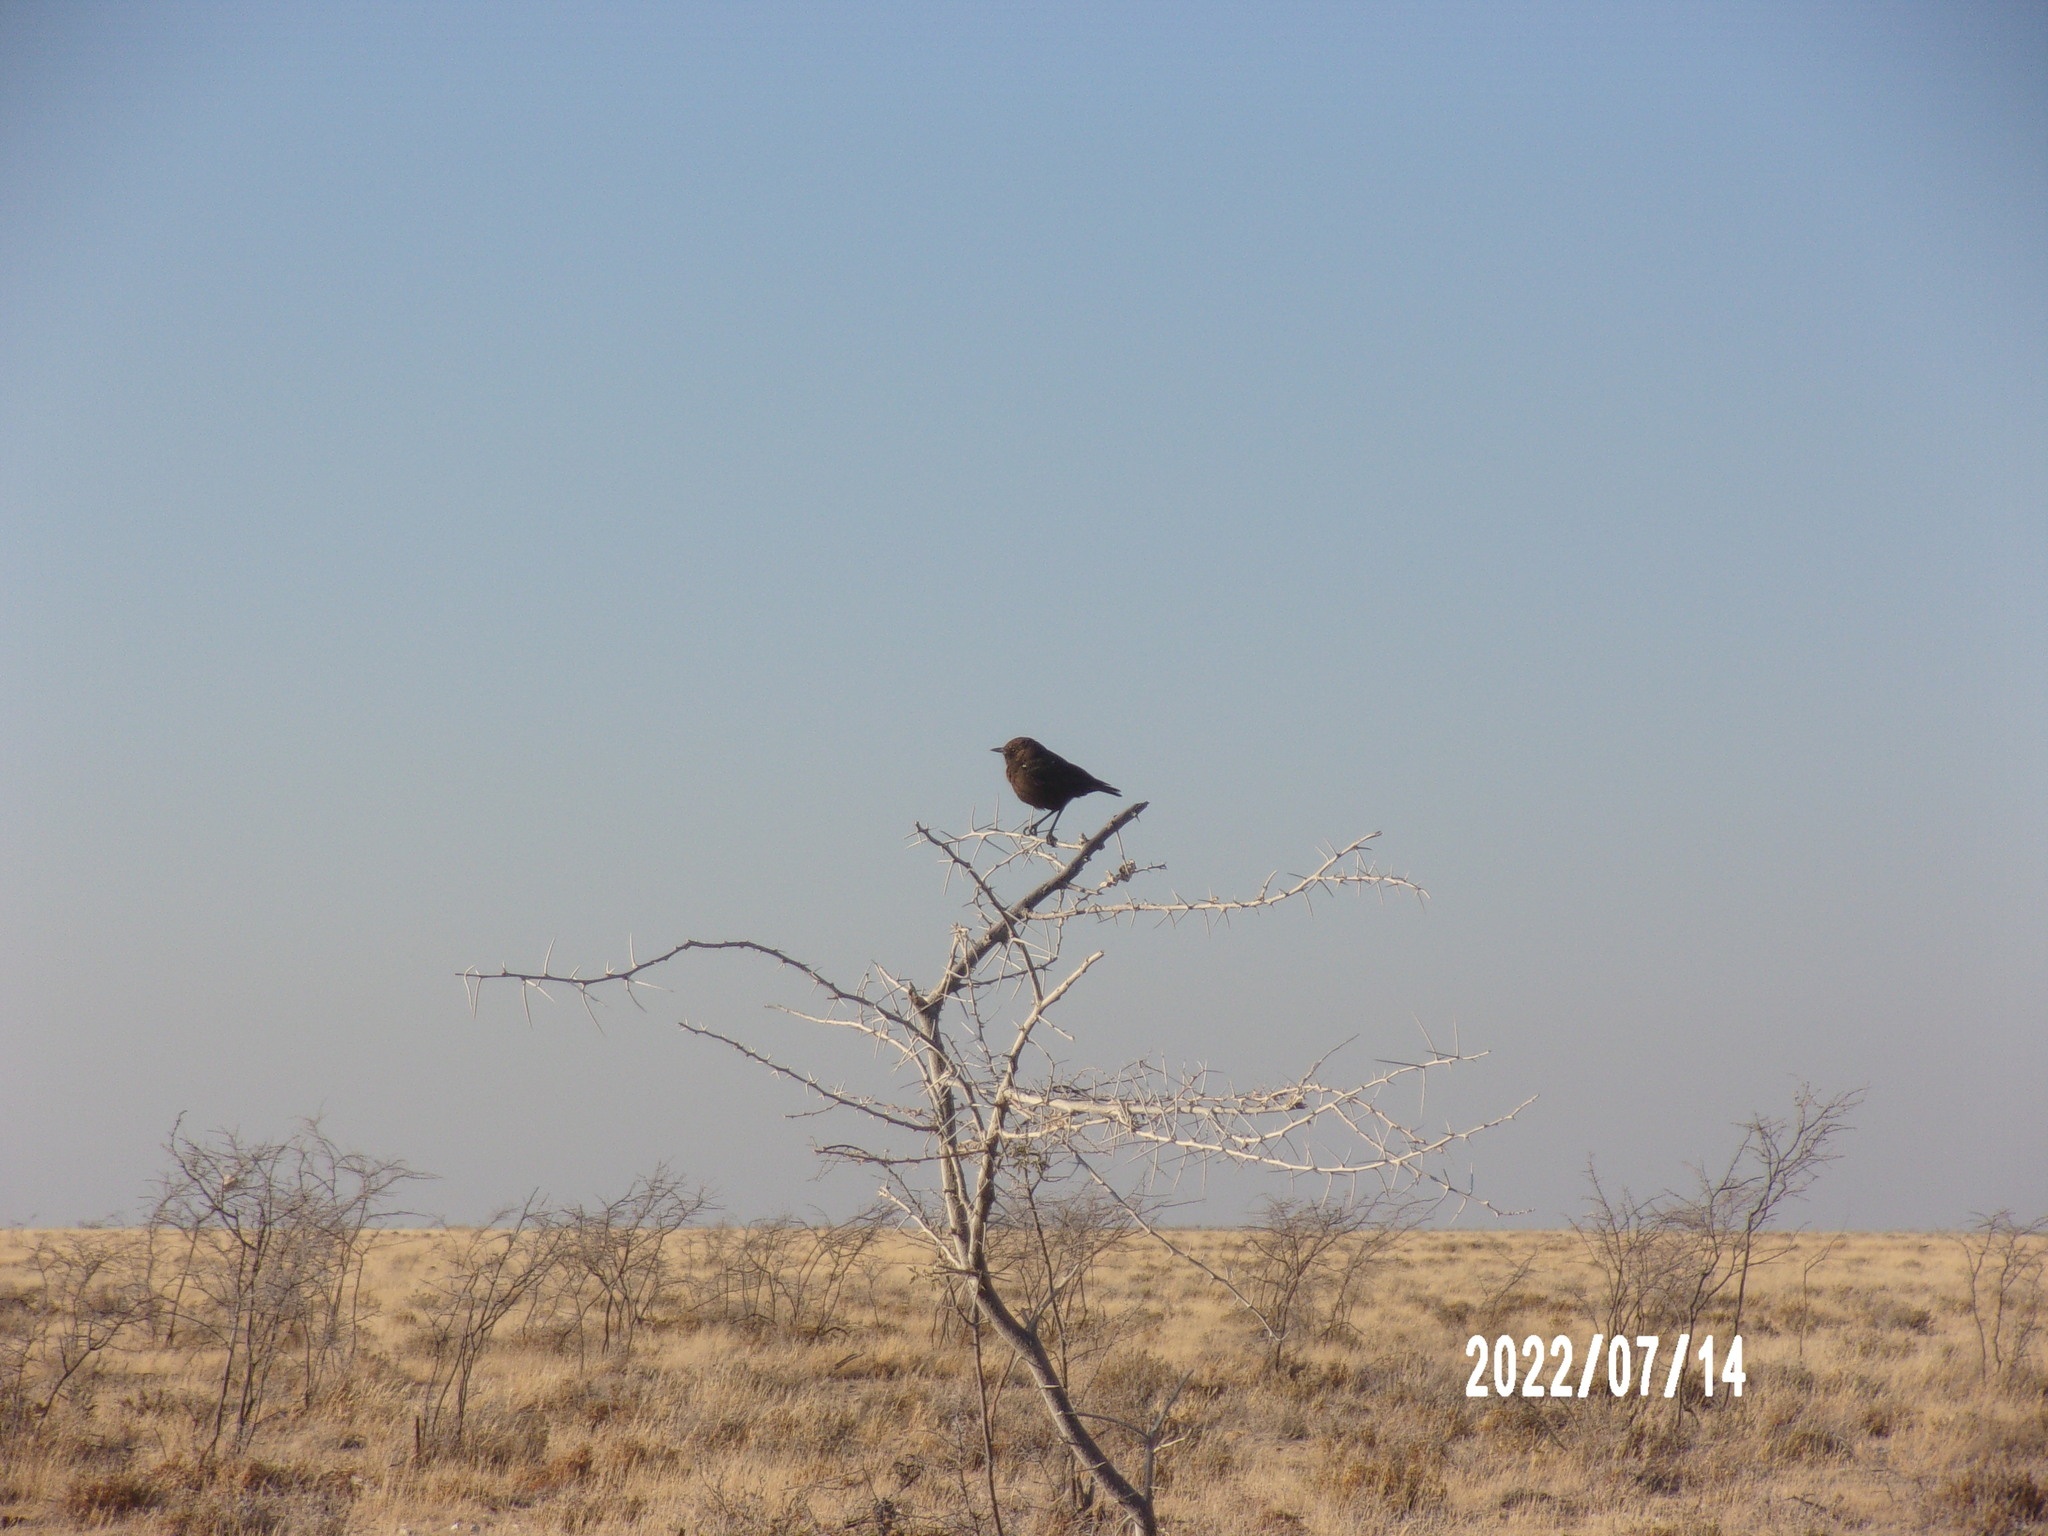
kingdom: Animalia
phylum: Chordata
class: Aves
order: Passeriformes
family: Muscicapidae
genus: Myrmecocichla
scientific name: Myrmecocichla formicivora
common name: Ant-eating chat
